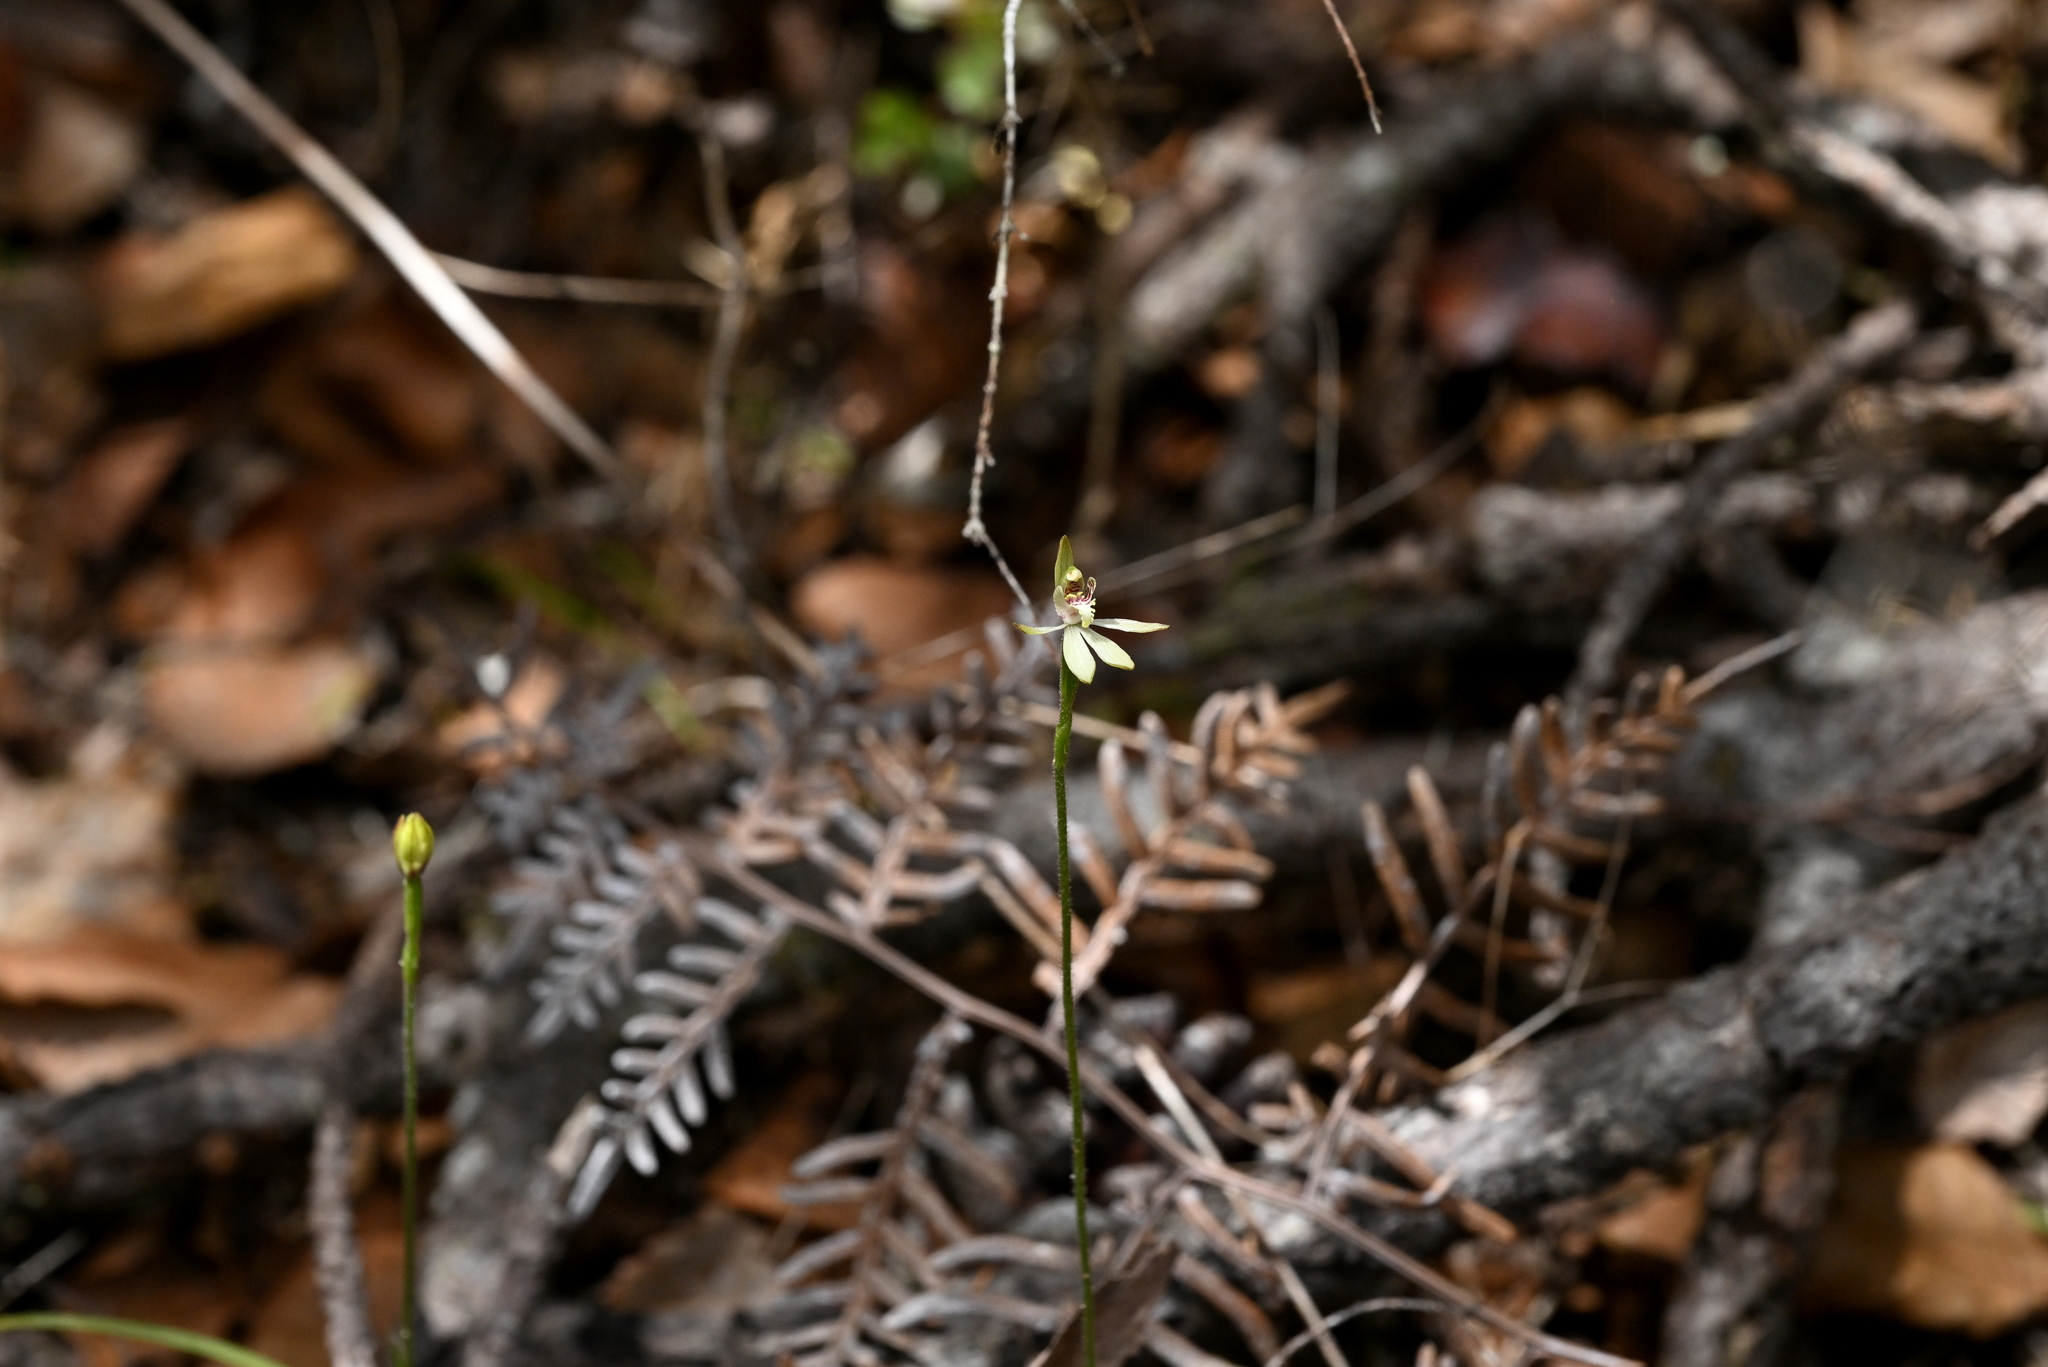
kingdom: Plantae
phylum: Tracheophyta
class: Liliopsida
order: Asparagales
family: Orchidaceae
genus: Caladenia
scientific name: Caladenia chlorostyla
